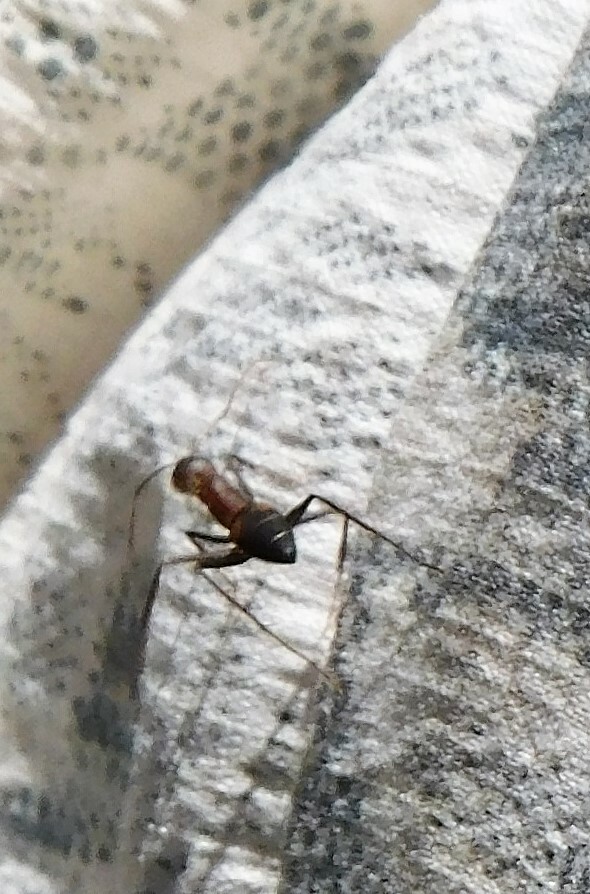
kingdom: Animalia
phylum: Arthropoda
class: Insecta
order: Hymenoptera
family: Formicidae
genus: Camponotus
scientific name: Camponotus socius
